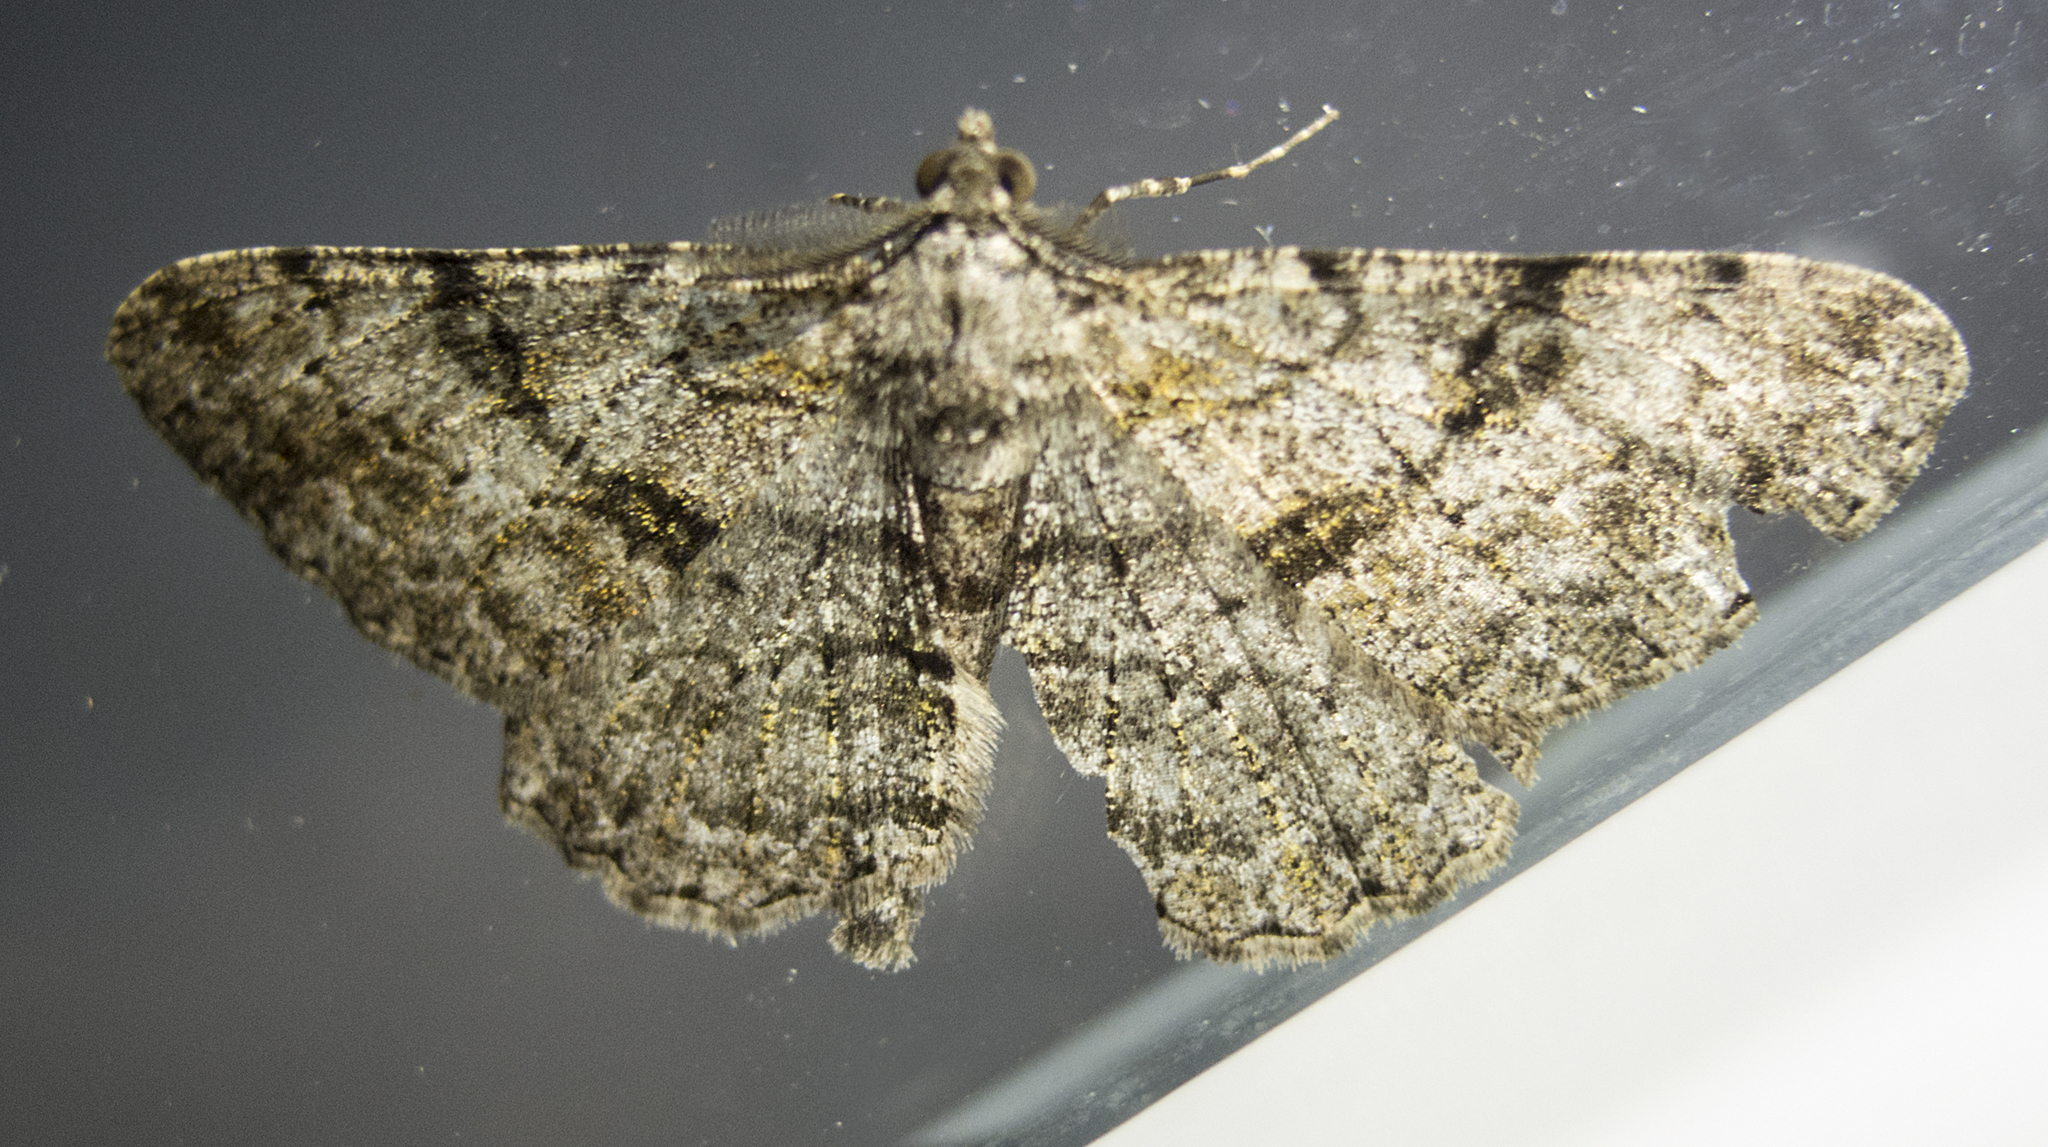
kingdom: Animalia
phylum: Arthropoda
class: Insecta
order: Lepidoptera
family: Geometridae
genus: Peribatodes
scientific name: Peribatodes rhomboidaria
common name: Willow beauty
